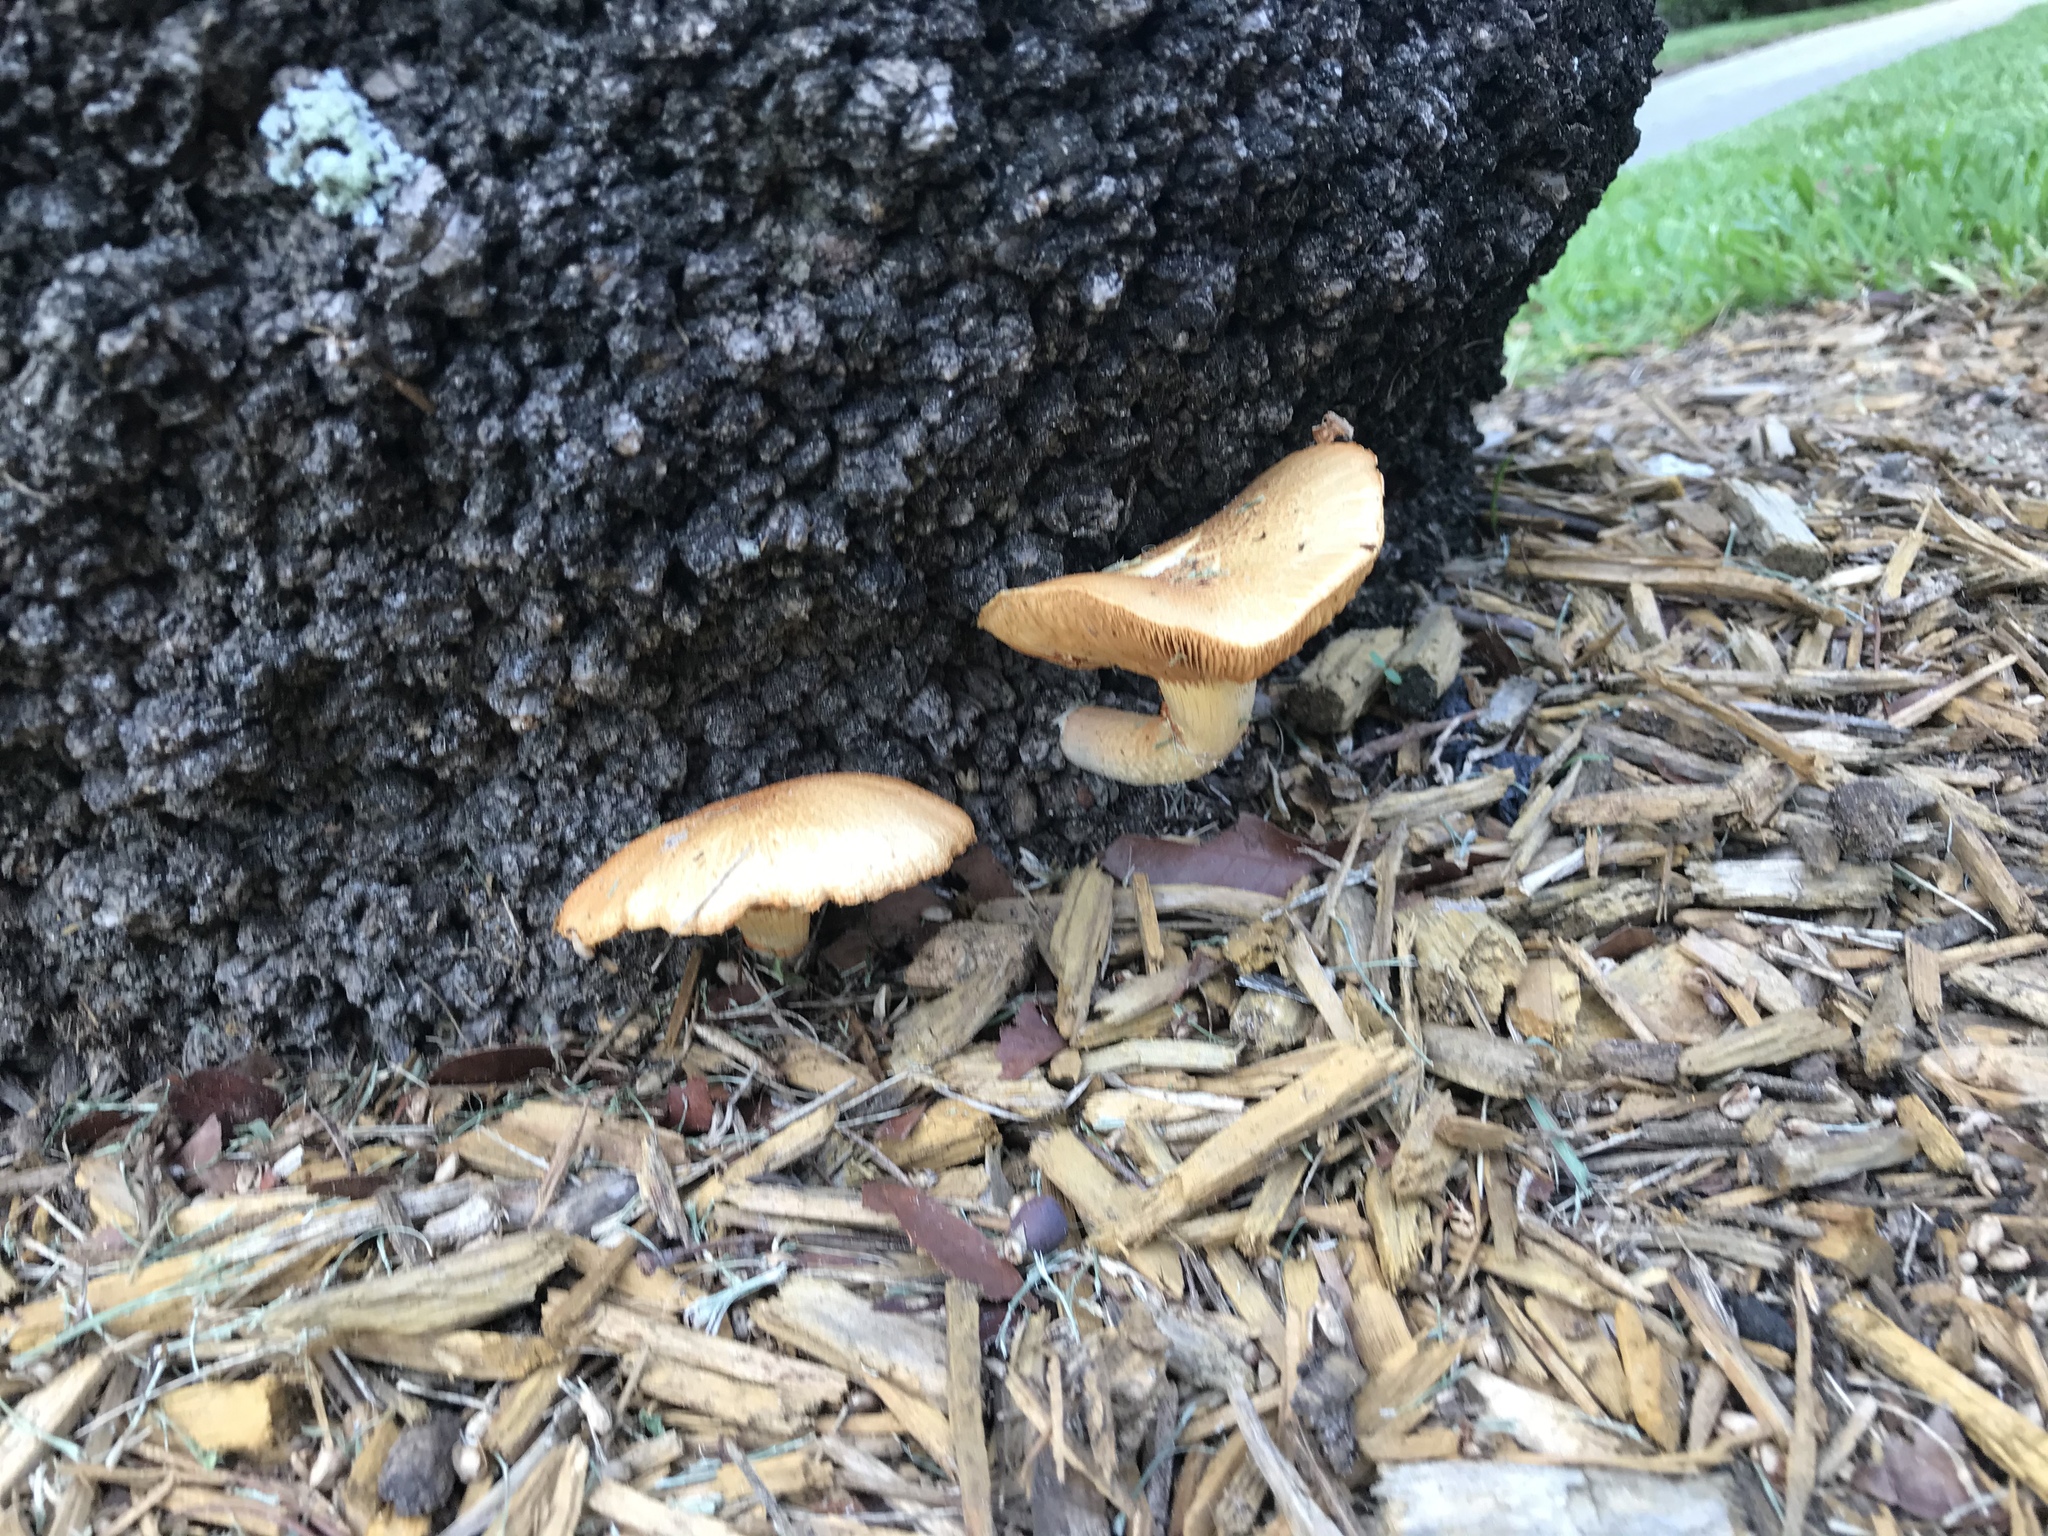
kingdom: Fungi
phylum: Basidiomycota
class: Agaricomycetes
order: Agaricales
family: Hymenogastraceae
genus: Gymnopilus
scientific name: Gymnopilus cyanopalmicola
